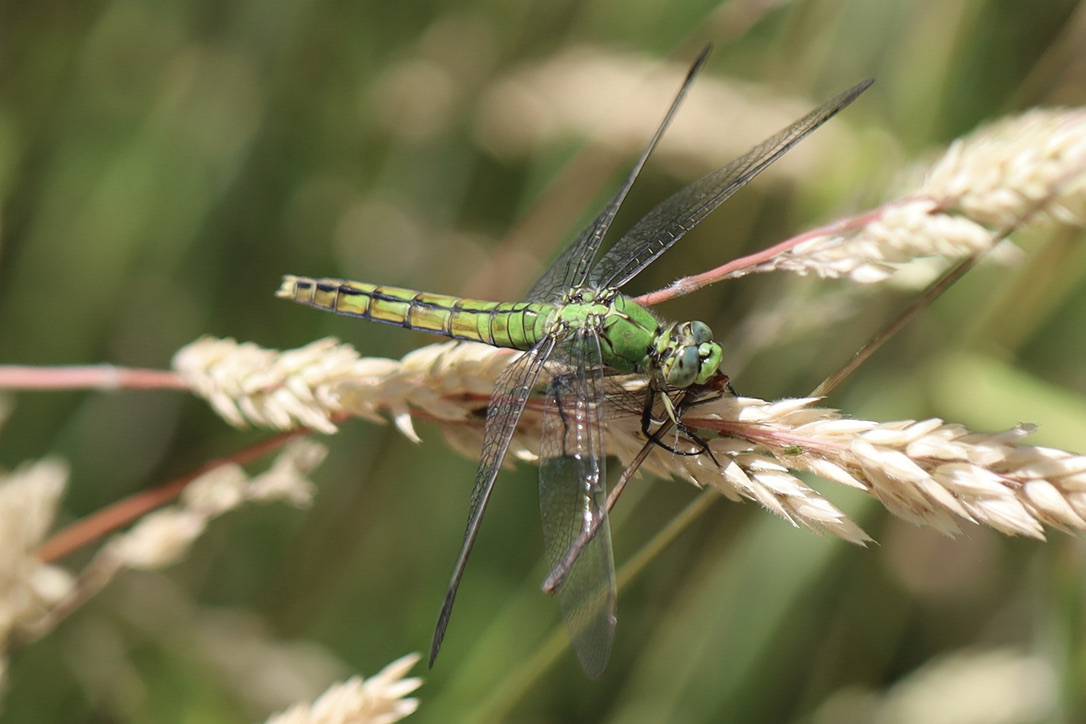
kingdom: Animalia
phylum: Arthropoda
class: Insecta
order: Odonata
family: Libellulidae
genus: Erythemis
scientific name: Erythemis collocata
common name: Western pondhawk
